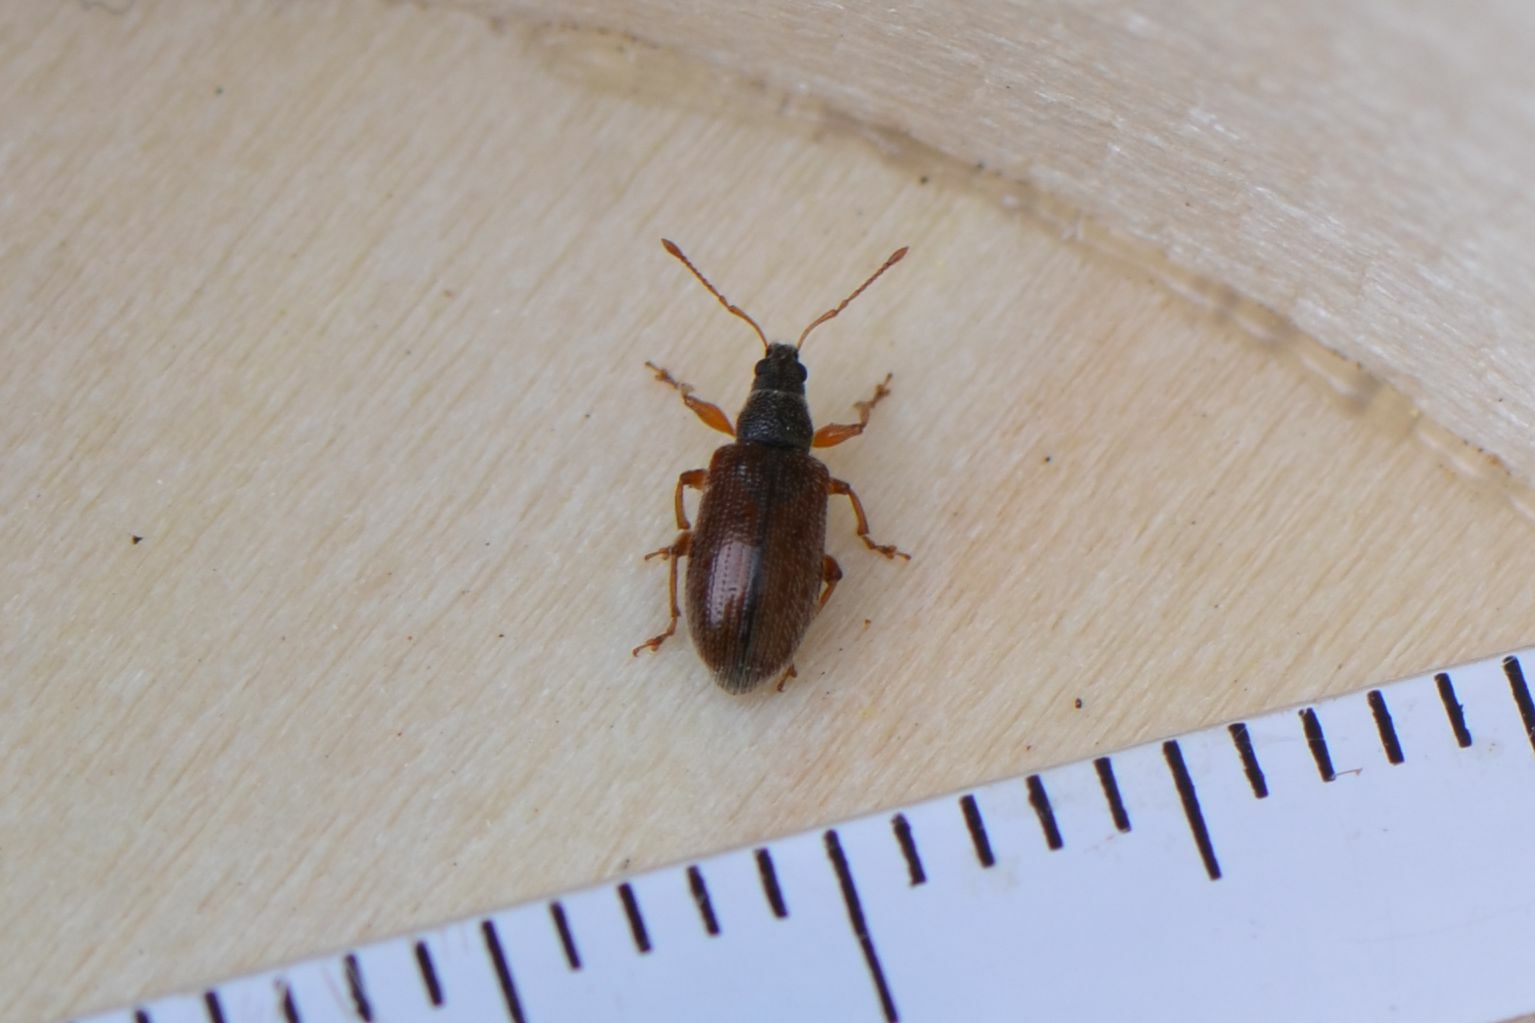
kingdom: Animalia
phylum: Arthropoda
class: Insecta
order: Coleoptera
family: Curculionidae
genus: Phyllobius
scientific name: Phyllobius oblongus
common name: Brown leaf weevil
